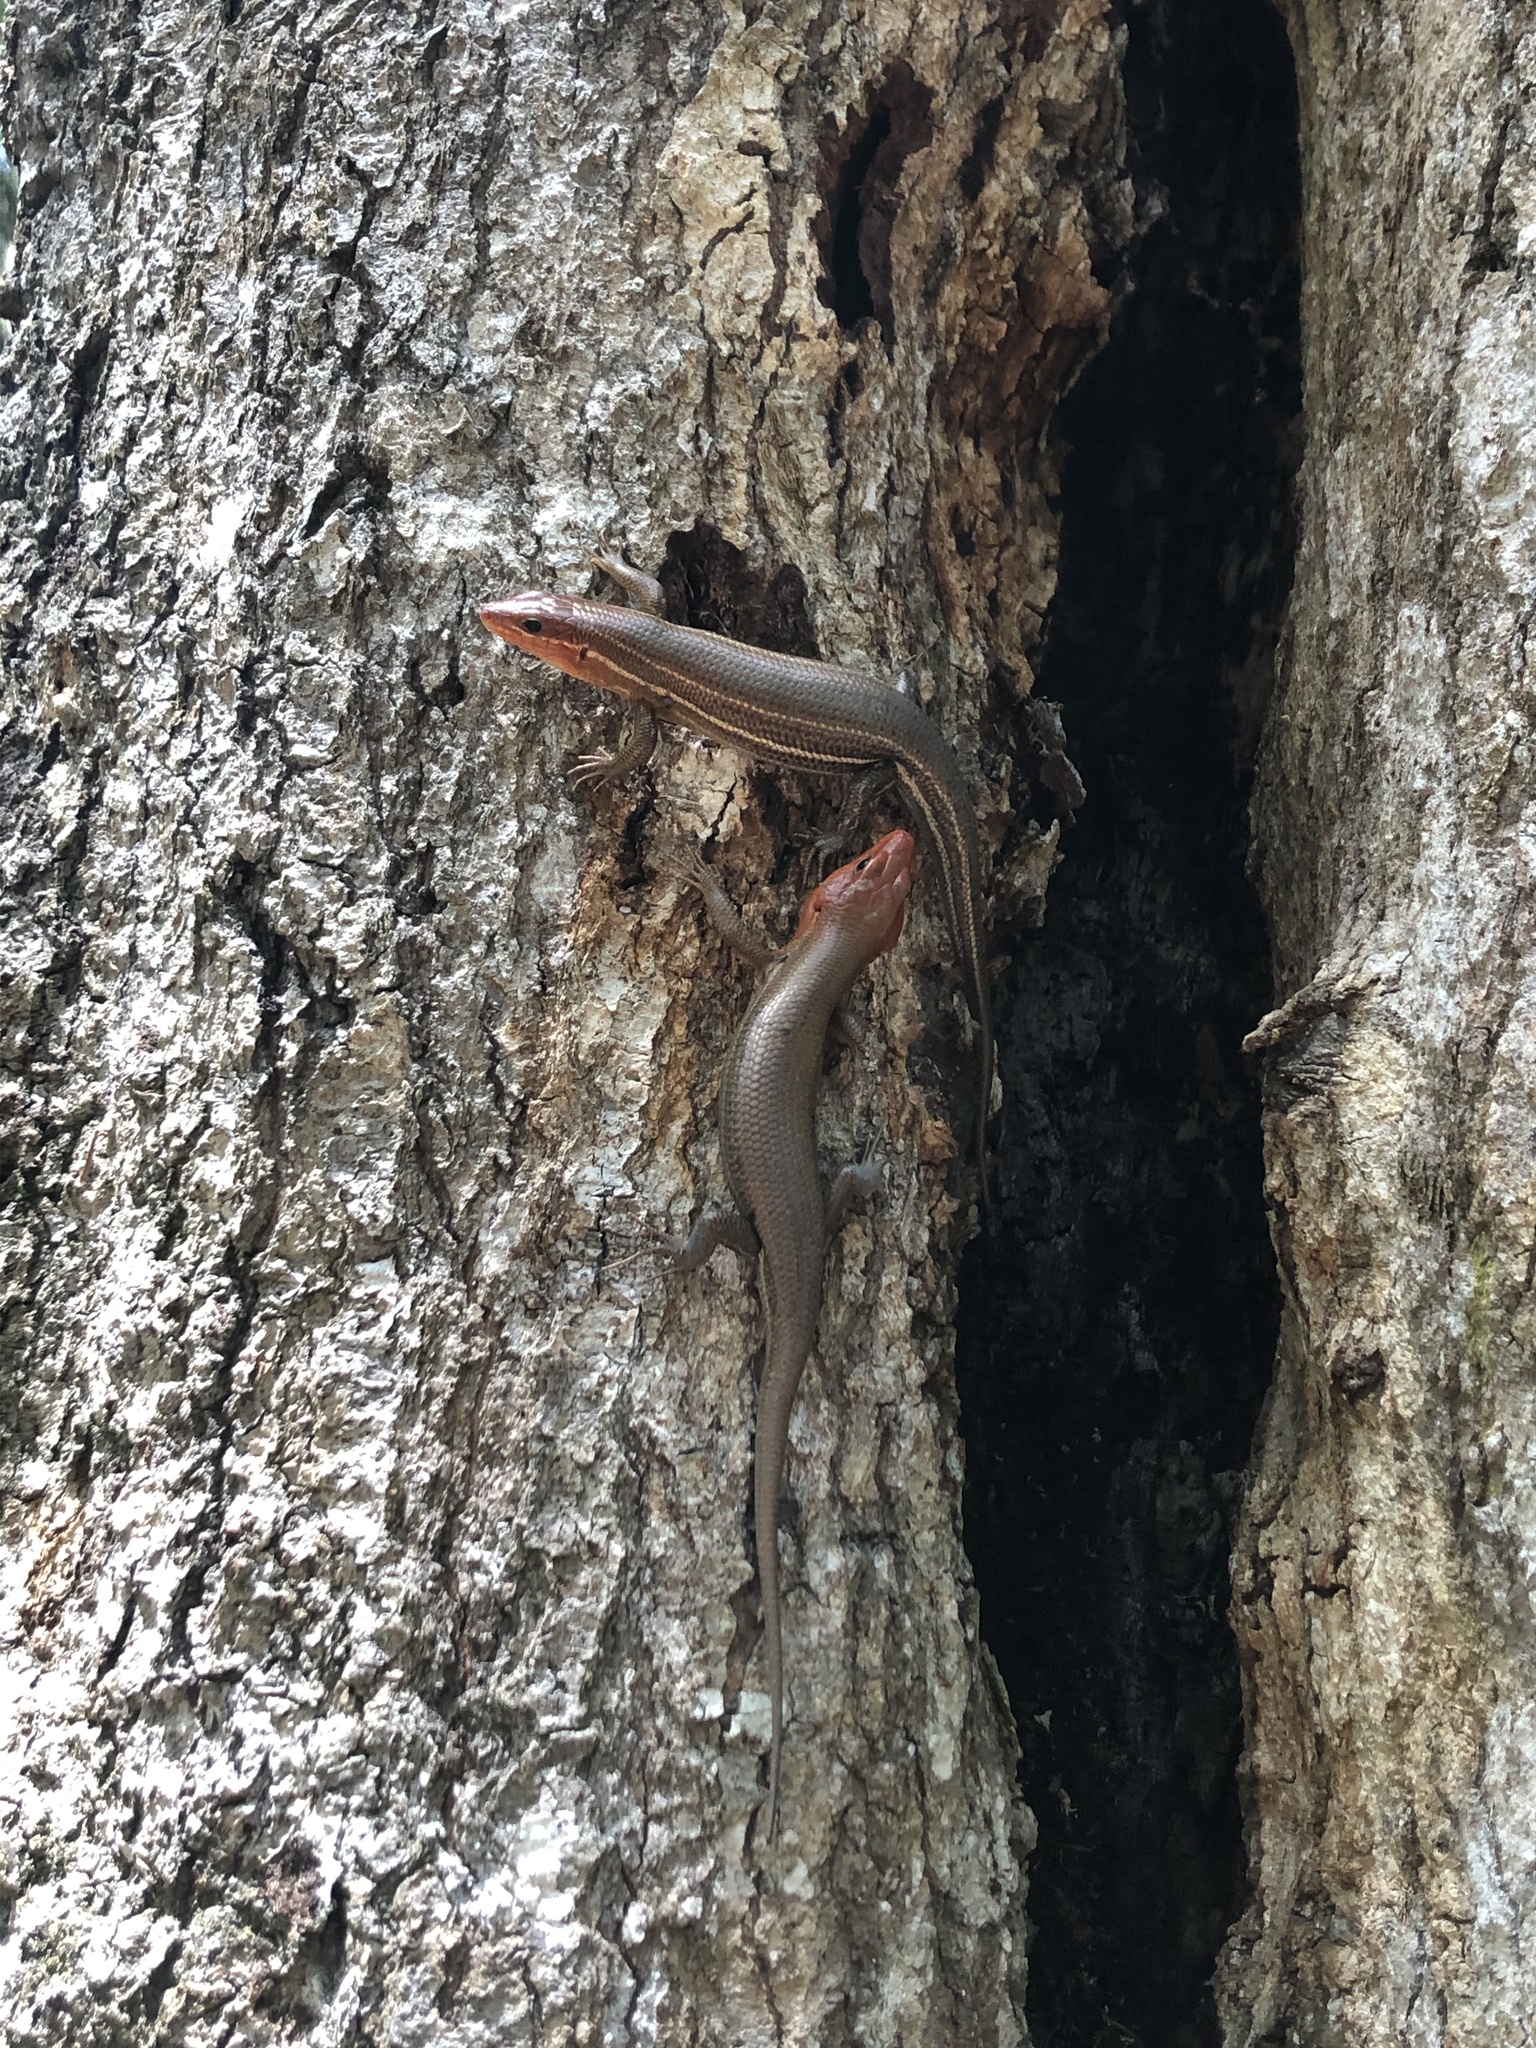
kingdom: Animalia
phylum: Chordata
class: Squamata
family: Scincidae
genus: Plestiodon
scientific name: Plestiodon laticeps
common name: Broadhead skink
